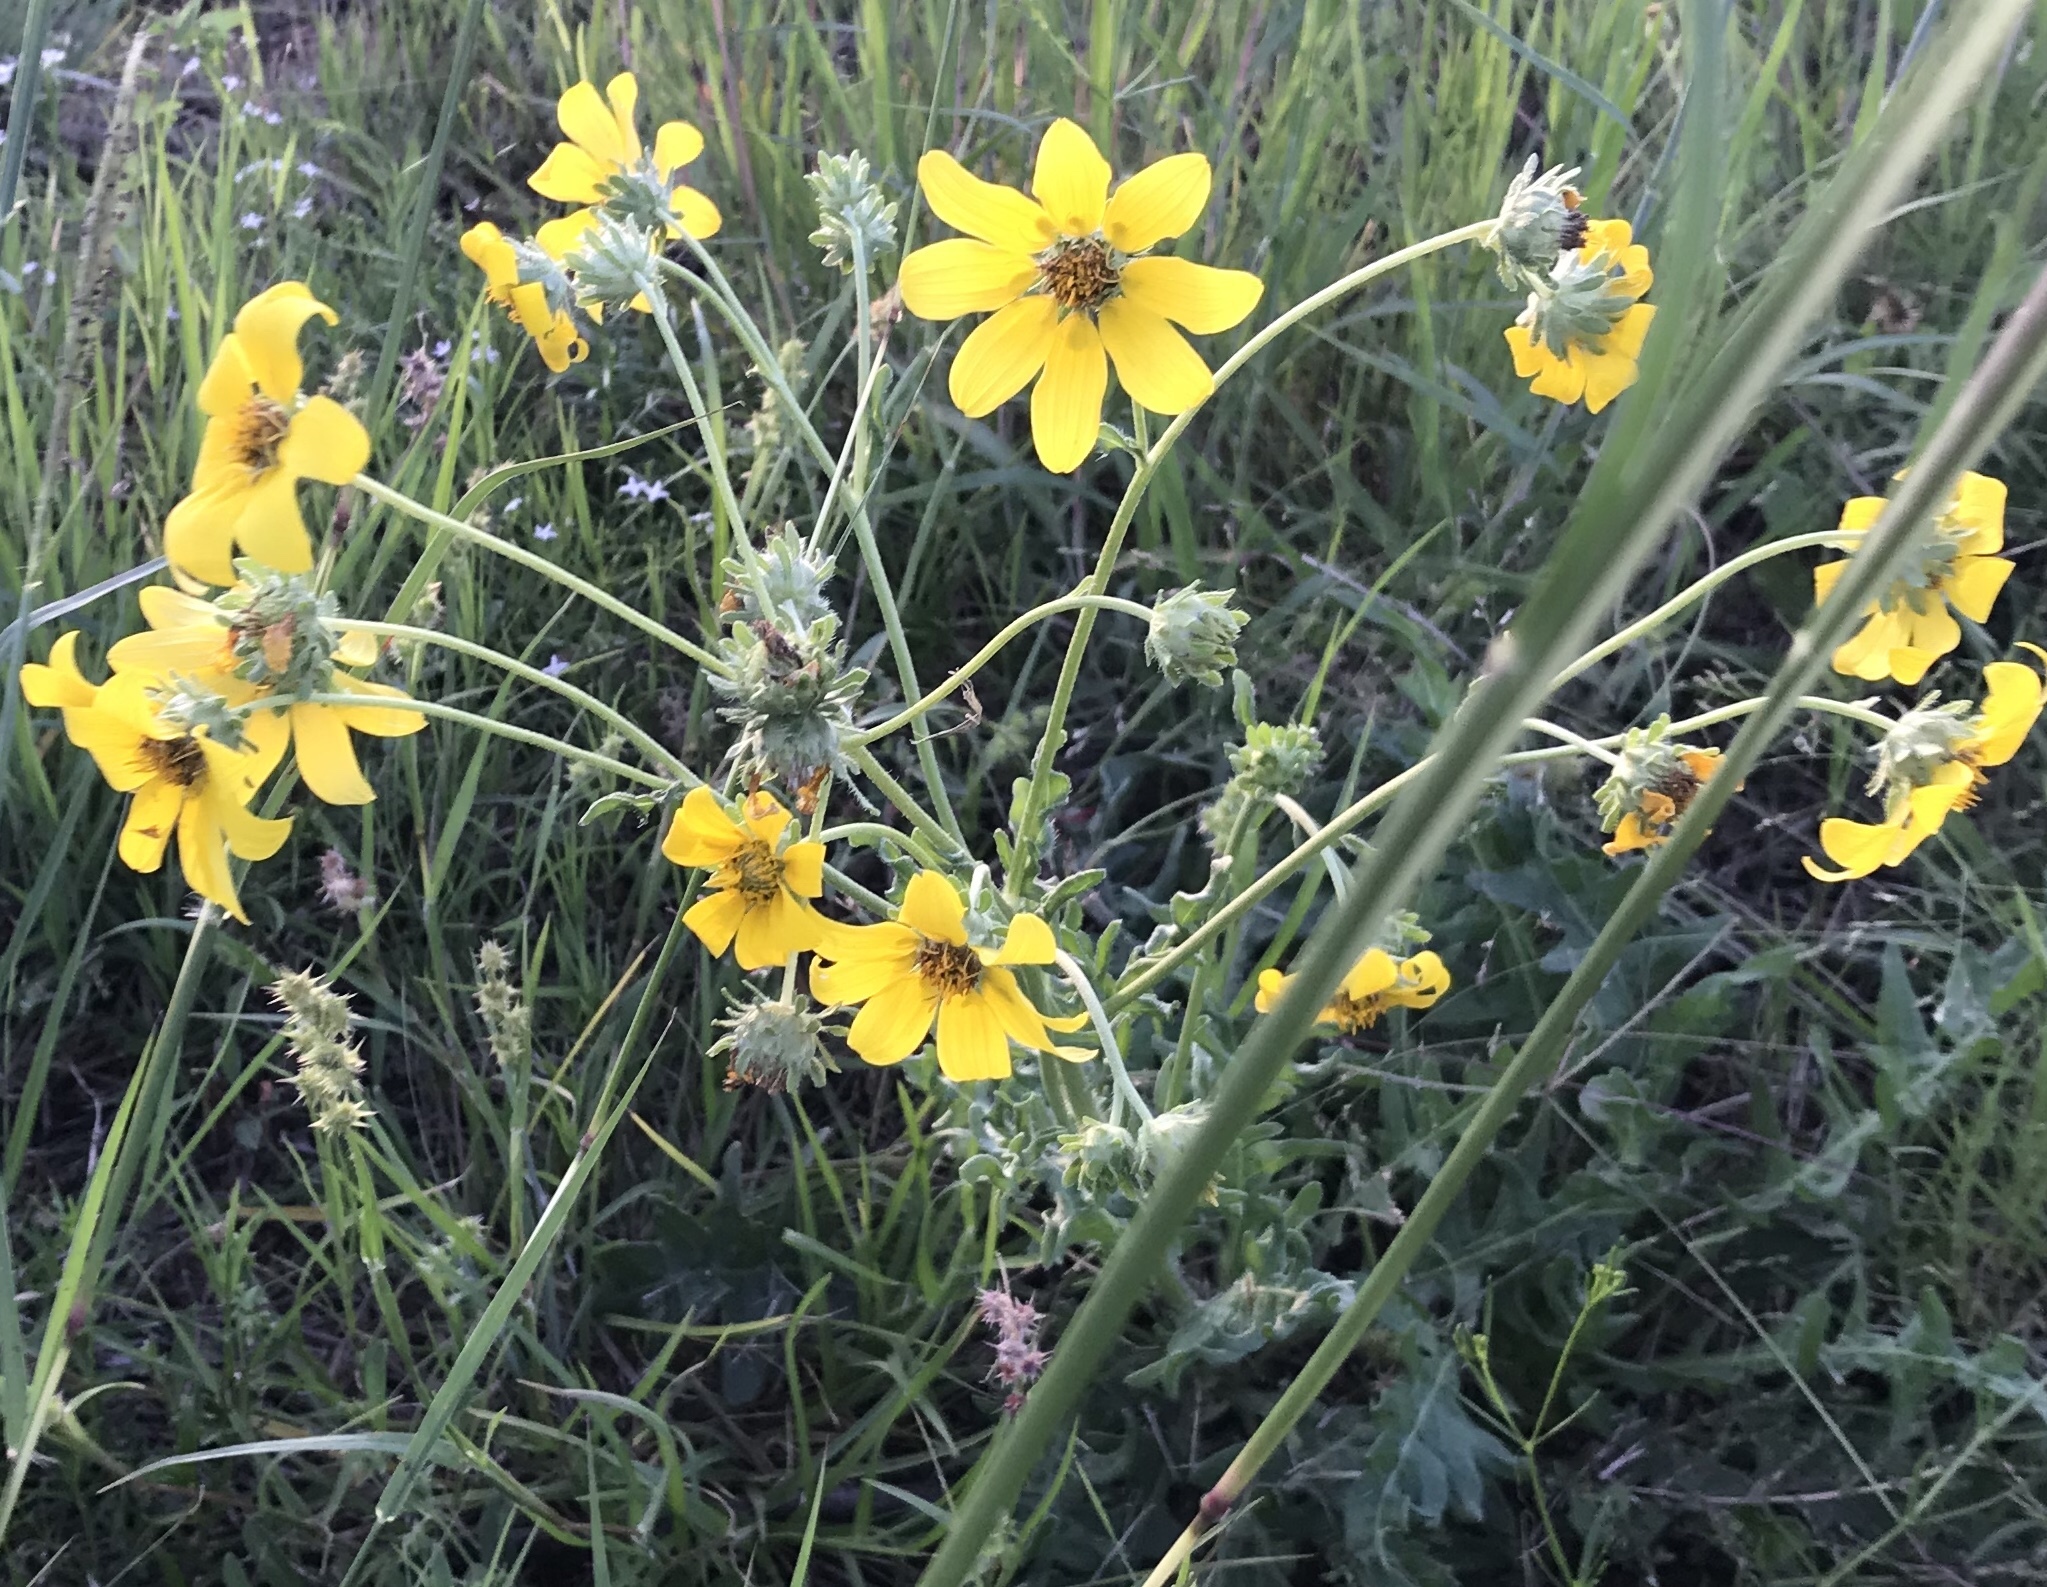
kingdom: Plantae
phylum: Tracheophyta
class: Magnoliopsida
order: Asterales
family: Asteraceae
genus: Engelmannia
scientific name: Engelmannia peristenia
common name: Engelmann's daisy
